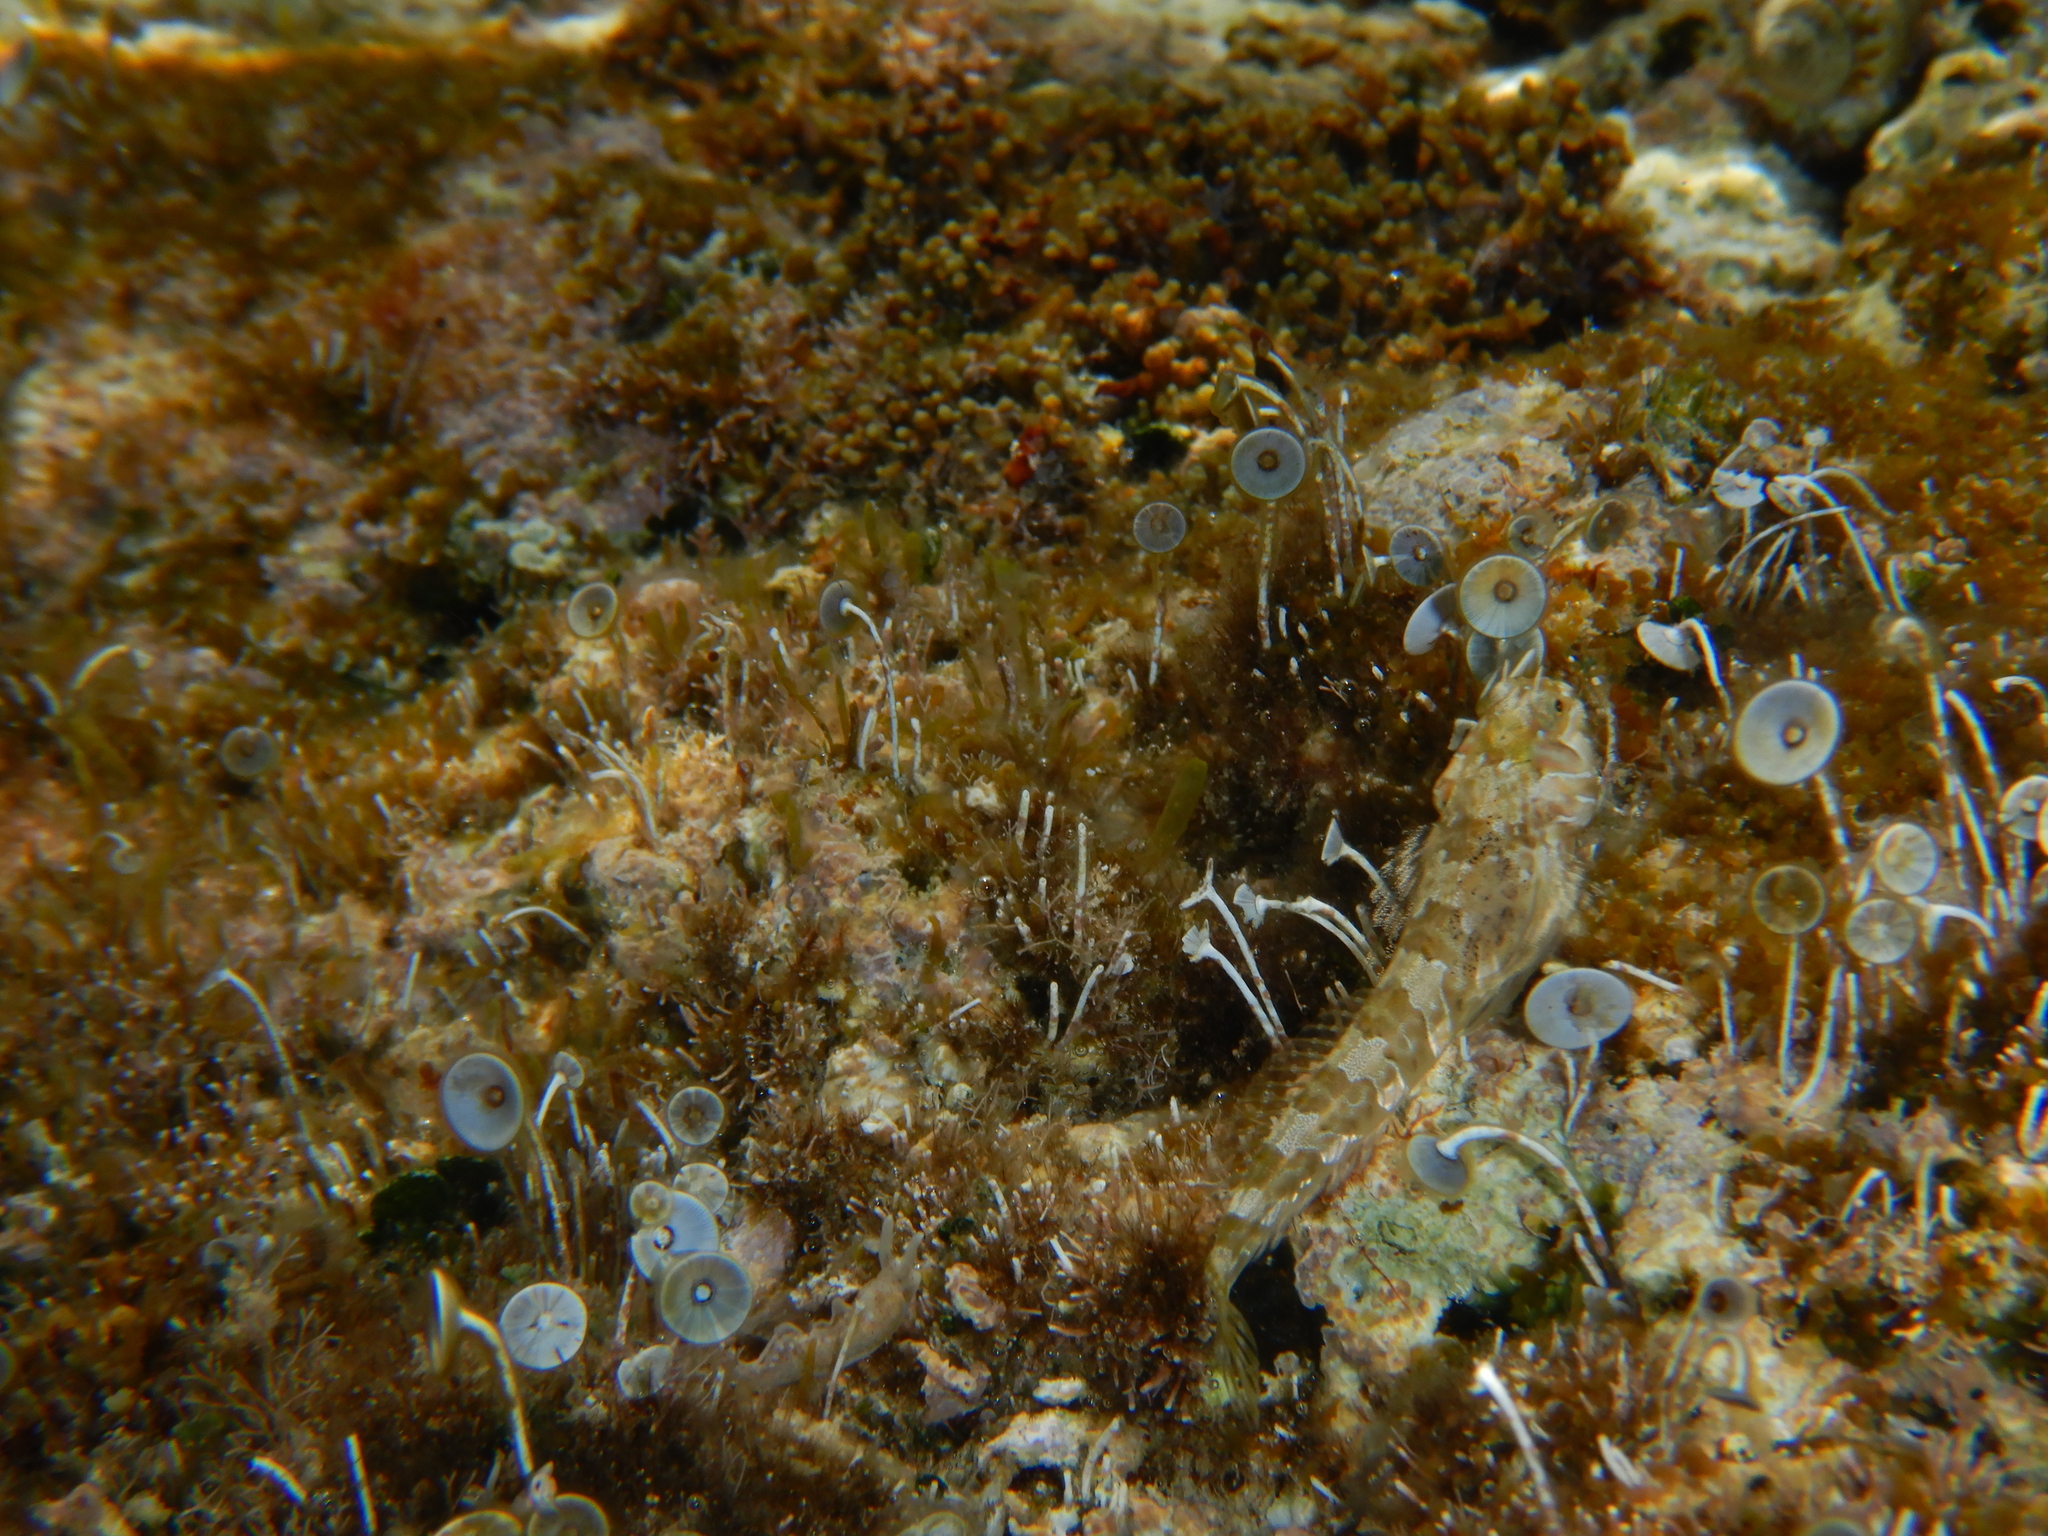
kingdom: Animalia
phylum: Chordata
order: Perciformes
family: Blenniidae
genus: Aidablennius
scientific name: Aidablennius sphynx
